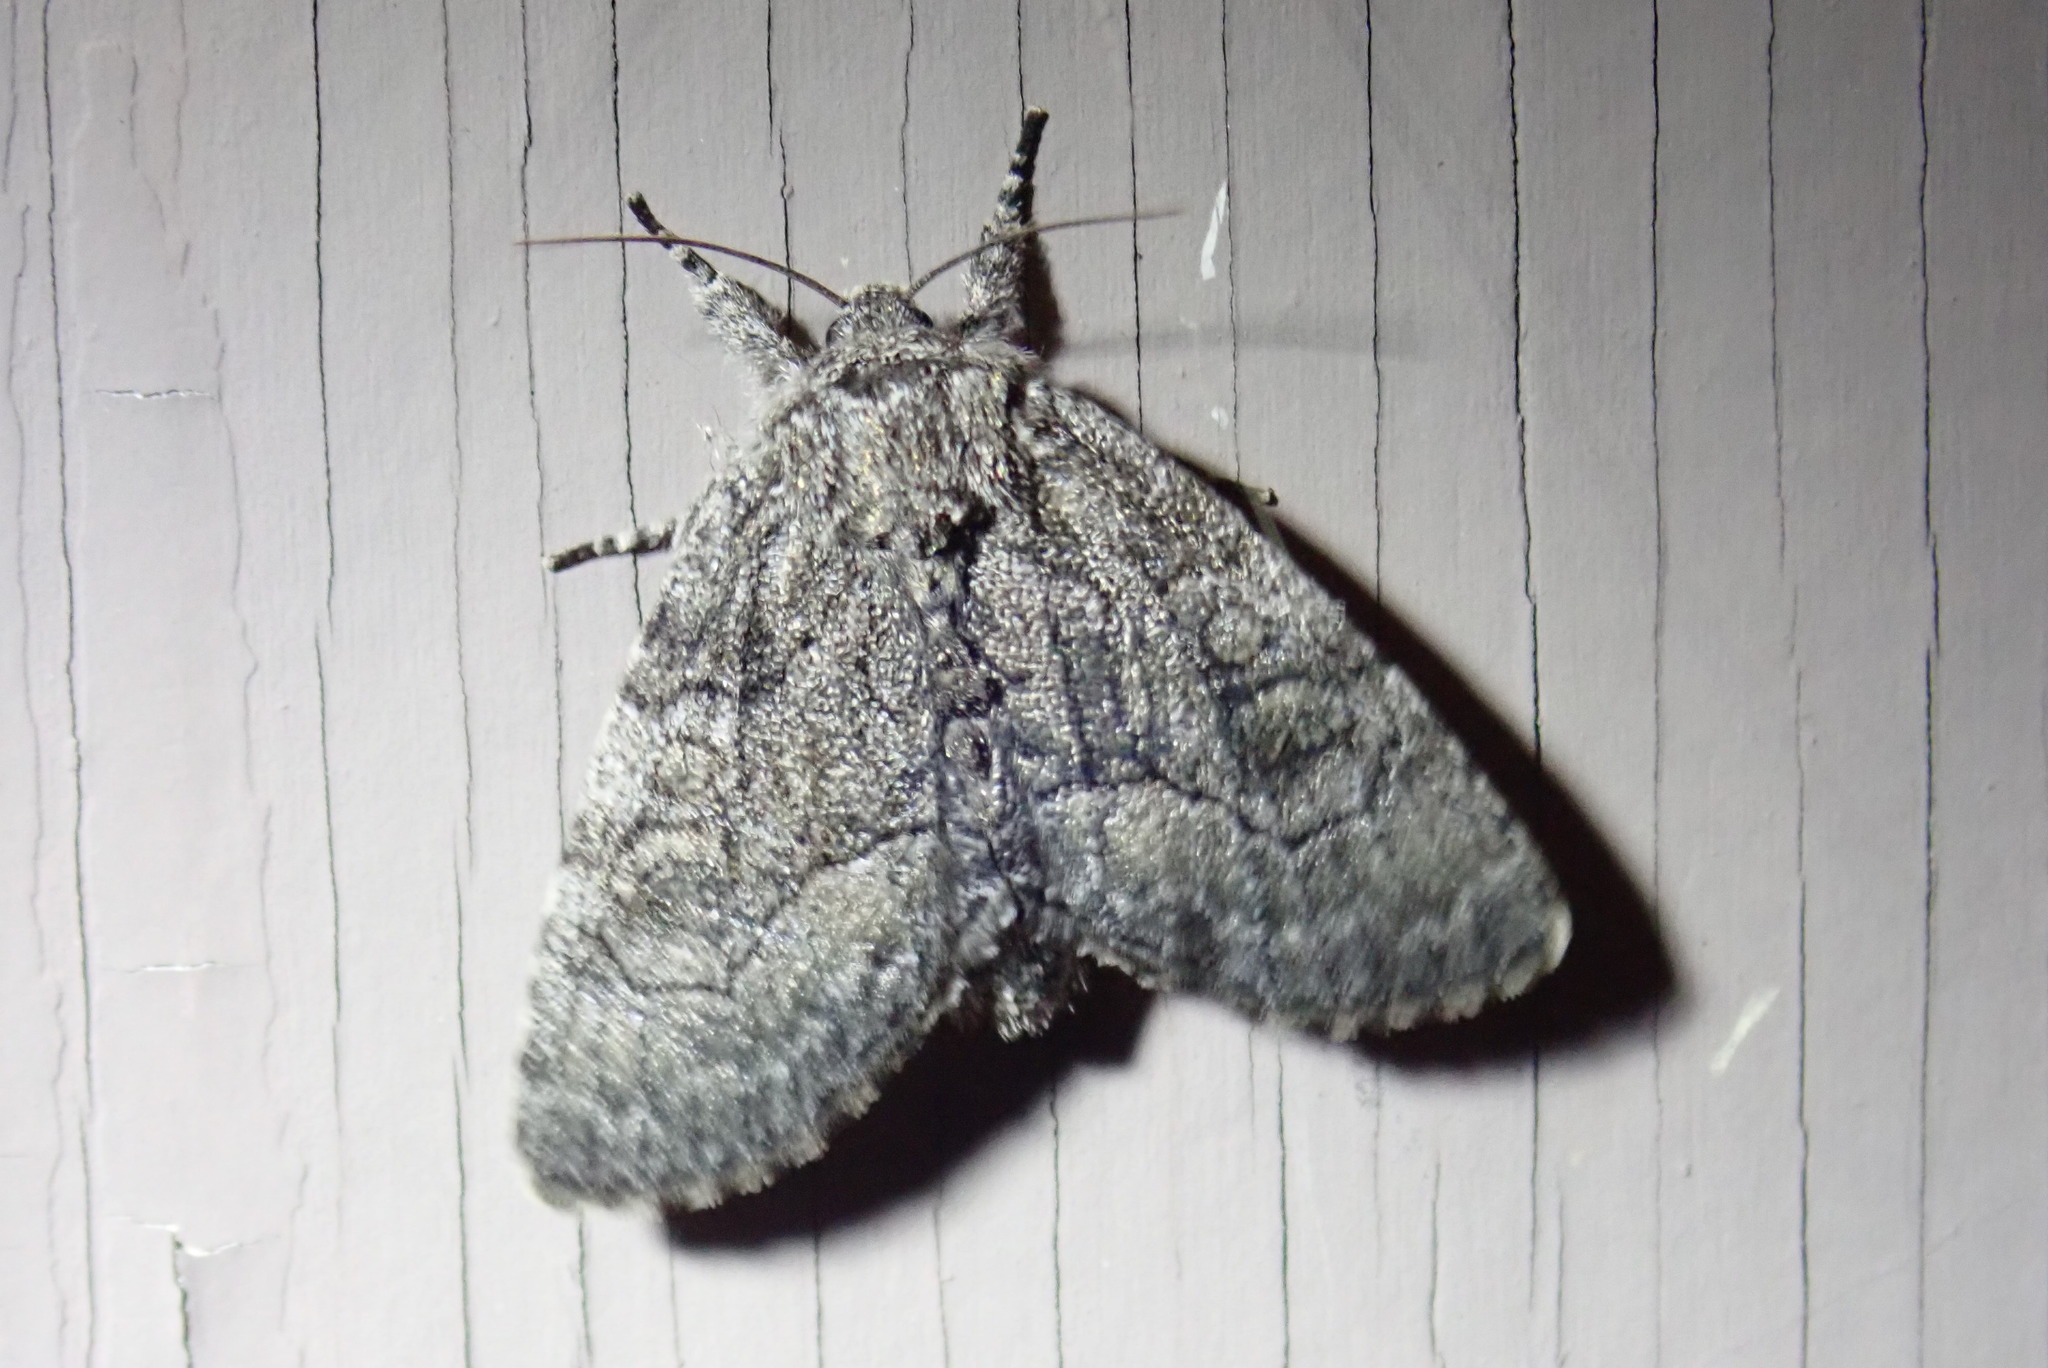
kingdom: Animalia
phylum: Arthropoda
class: Insecta
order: Lepidoptera
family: Noctuidae
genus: Raphia
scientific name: Raphia frater
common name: Brother
